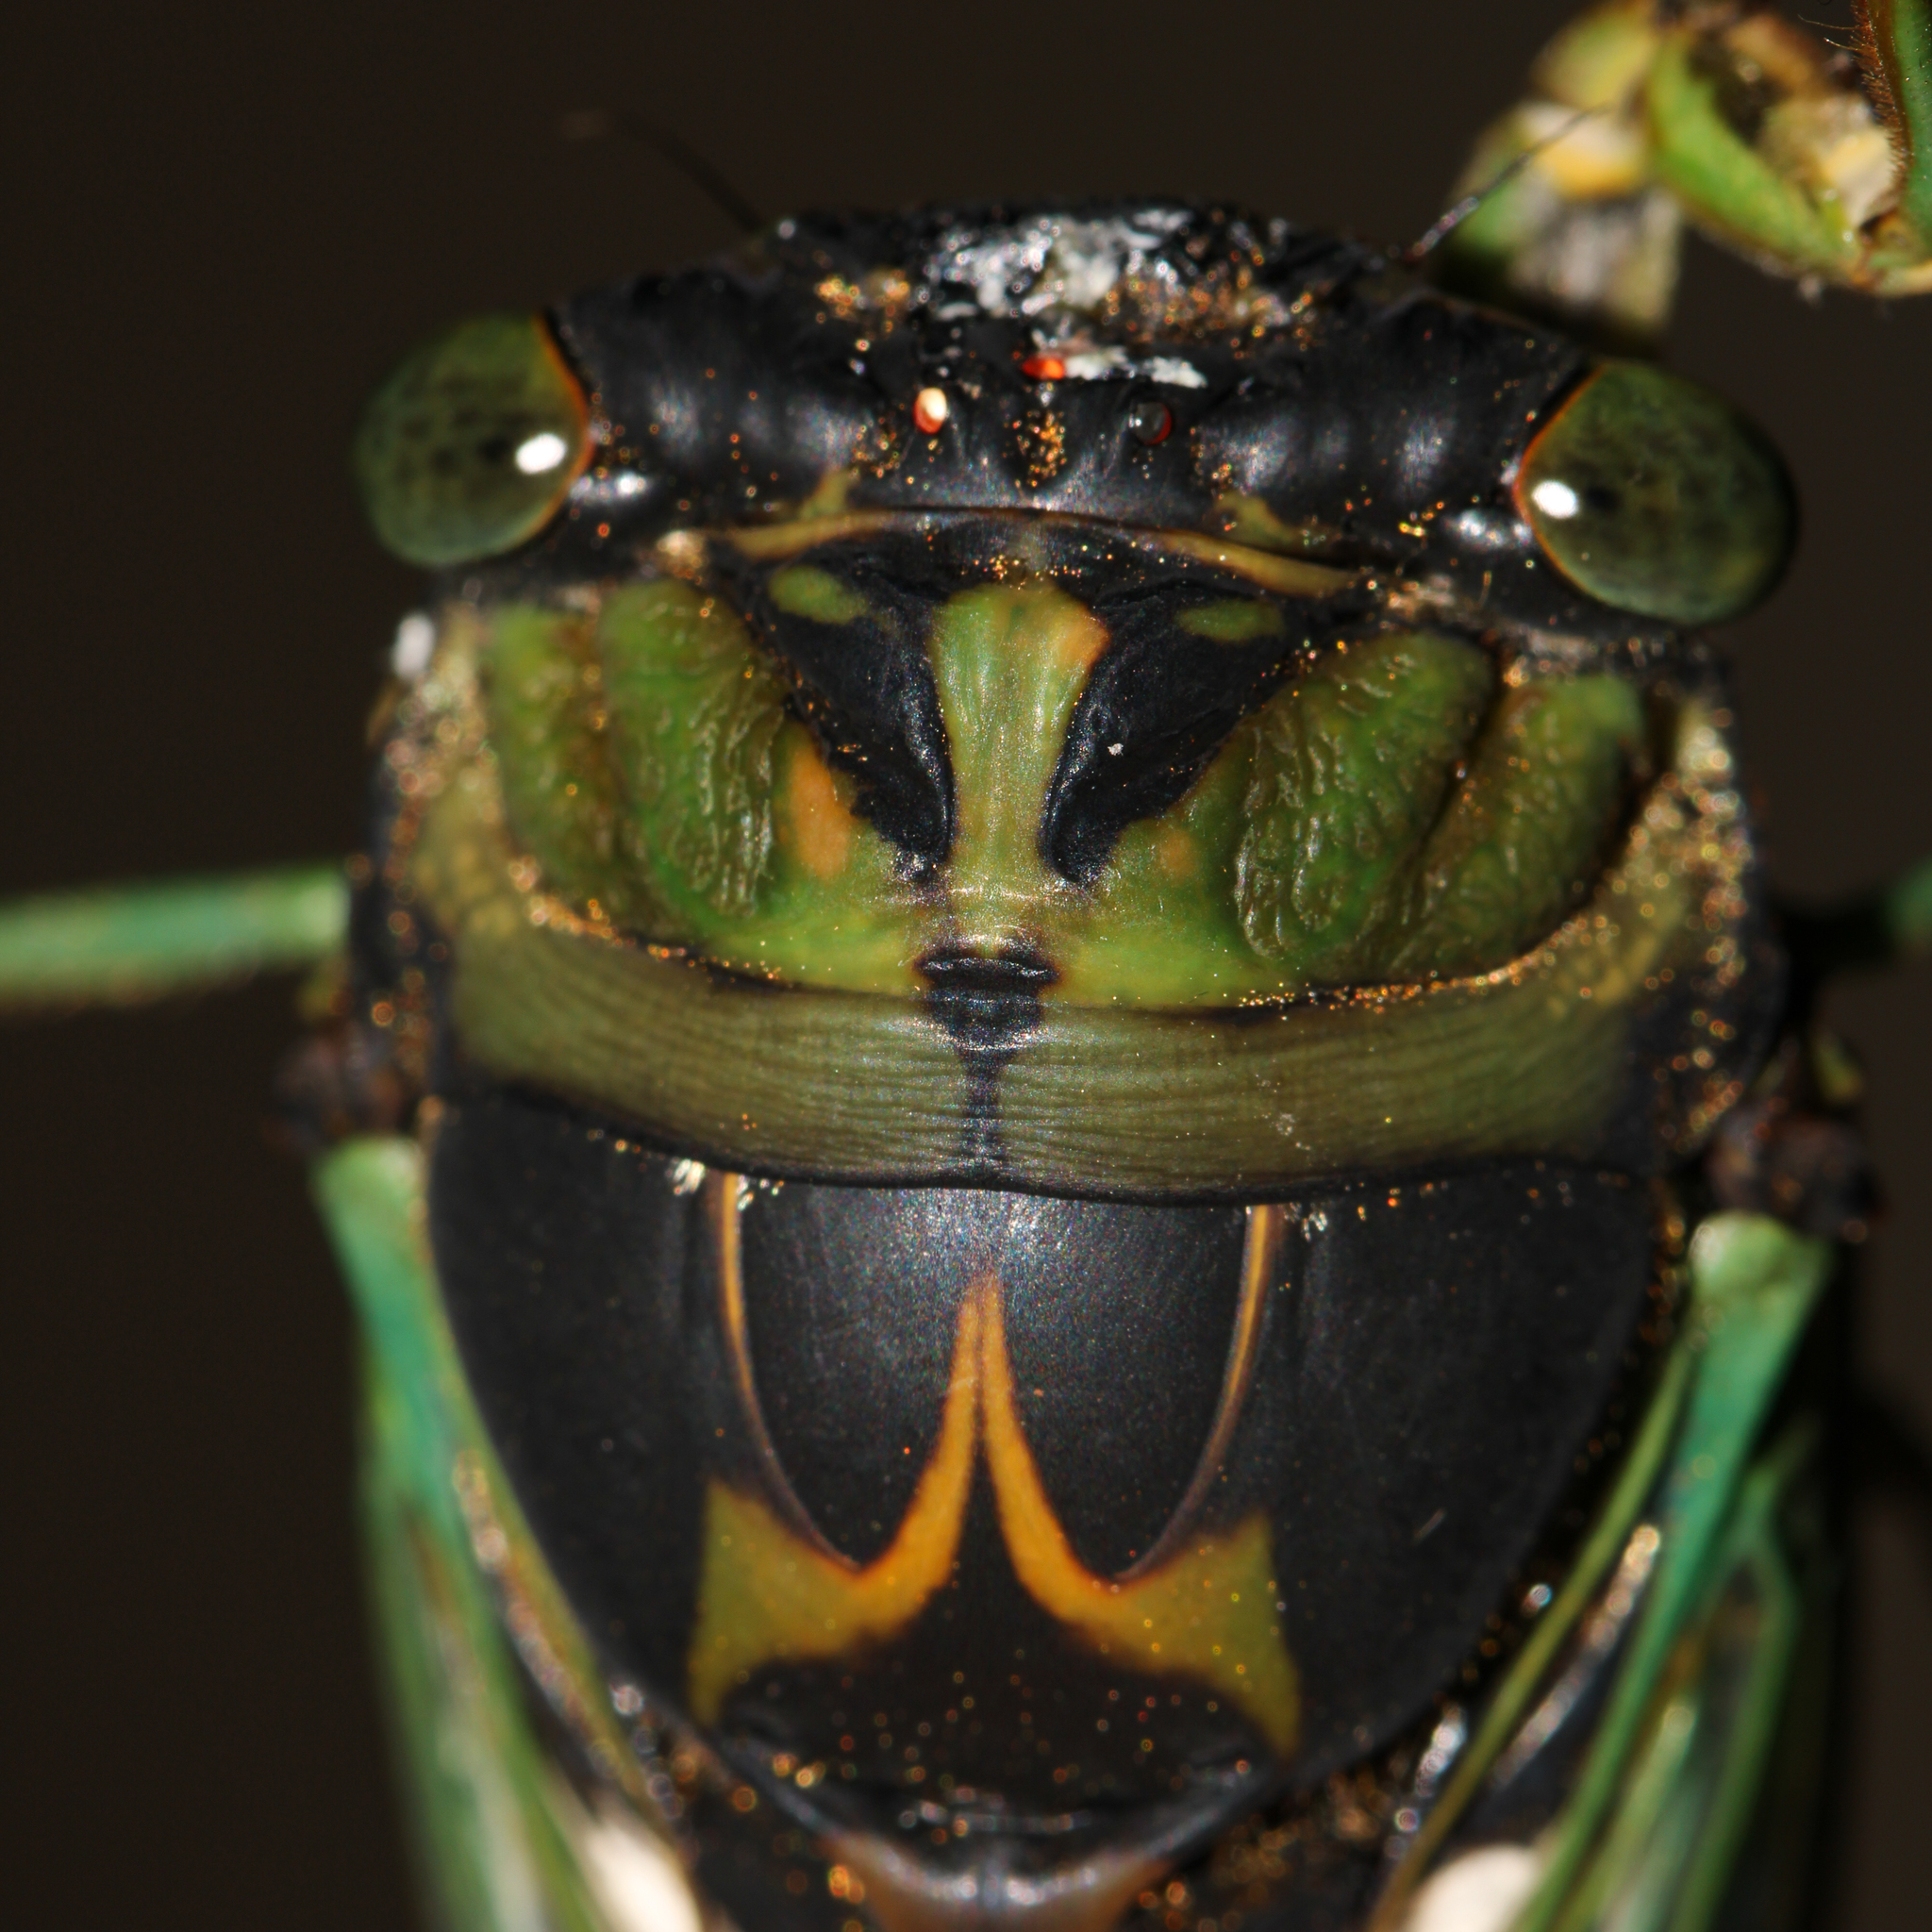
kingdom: Animalia
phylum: Arthropoda
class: Insecta
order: Hemiptera
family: Cicadidae
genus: Neotibicen
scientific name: Neotibicen tibicen
